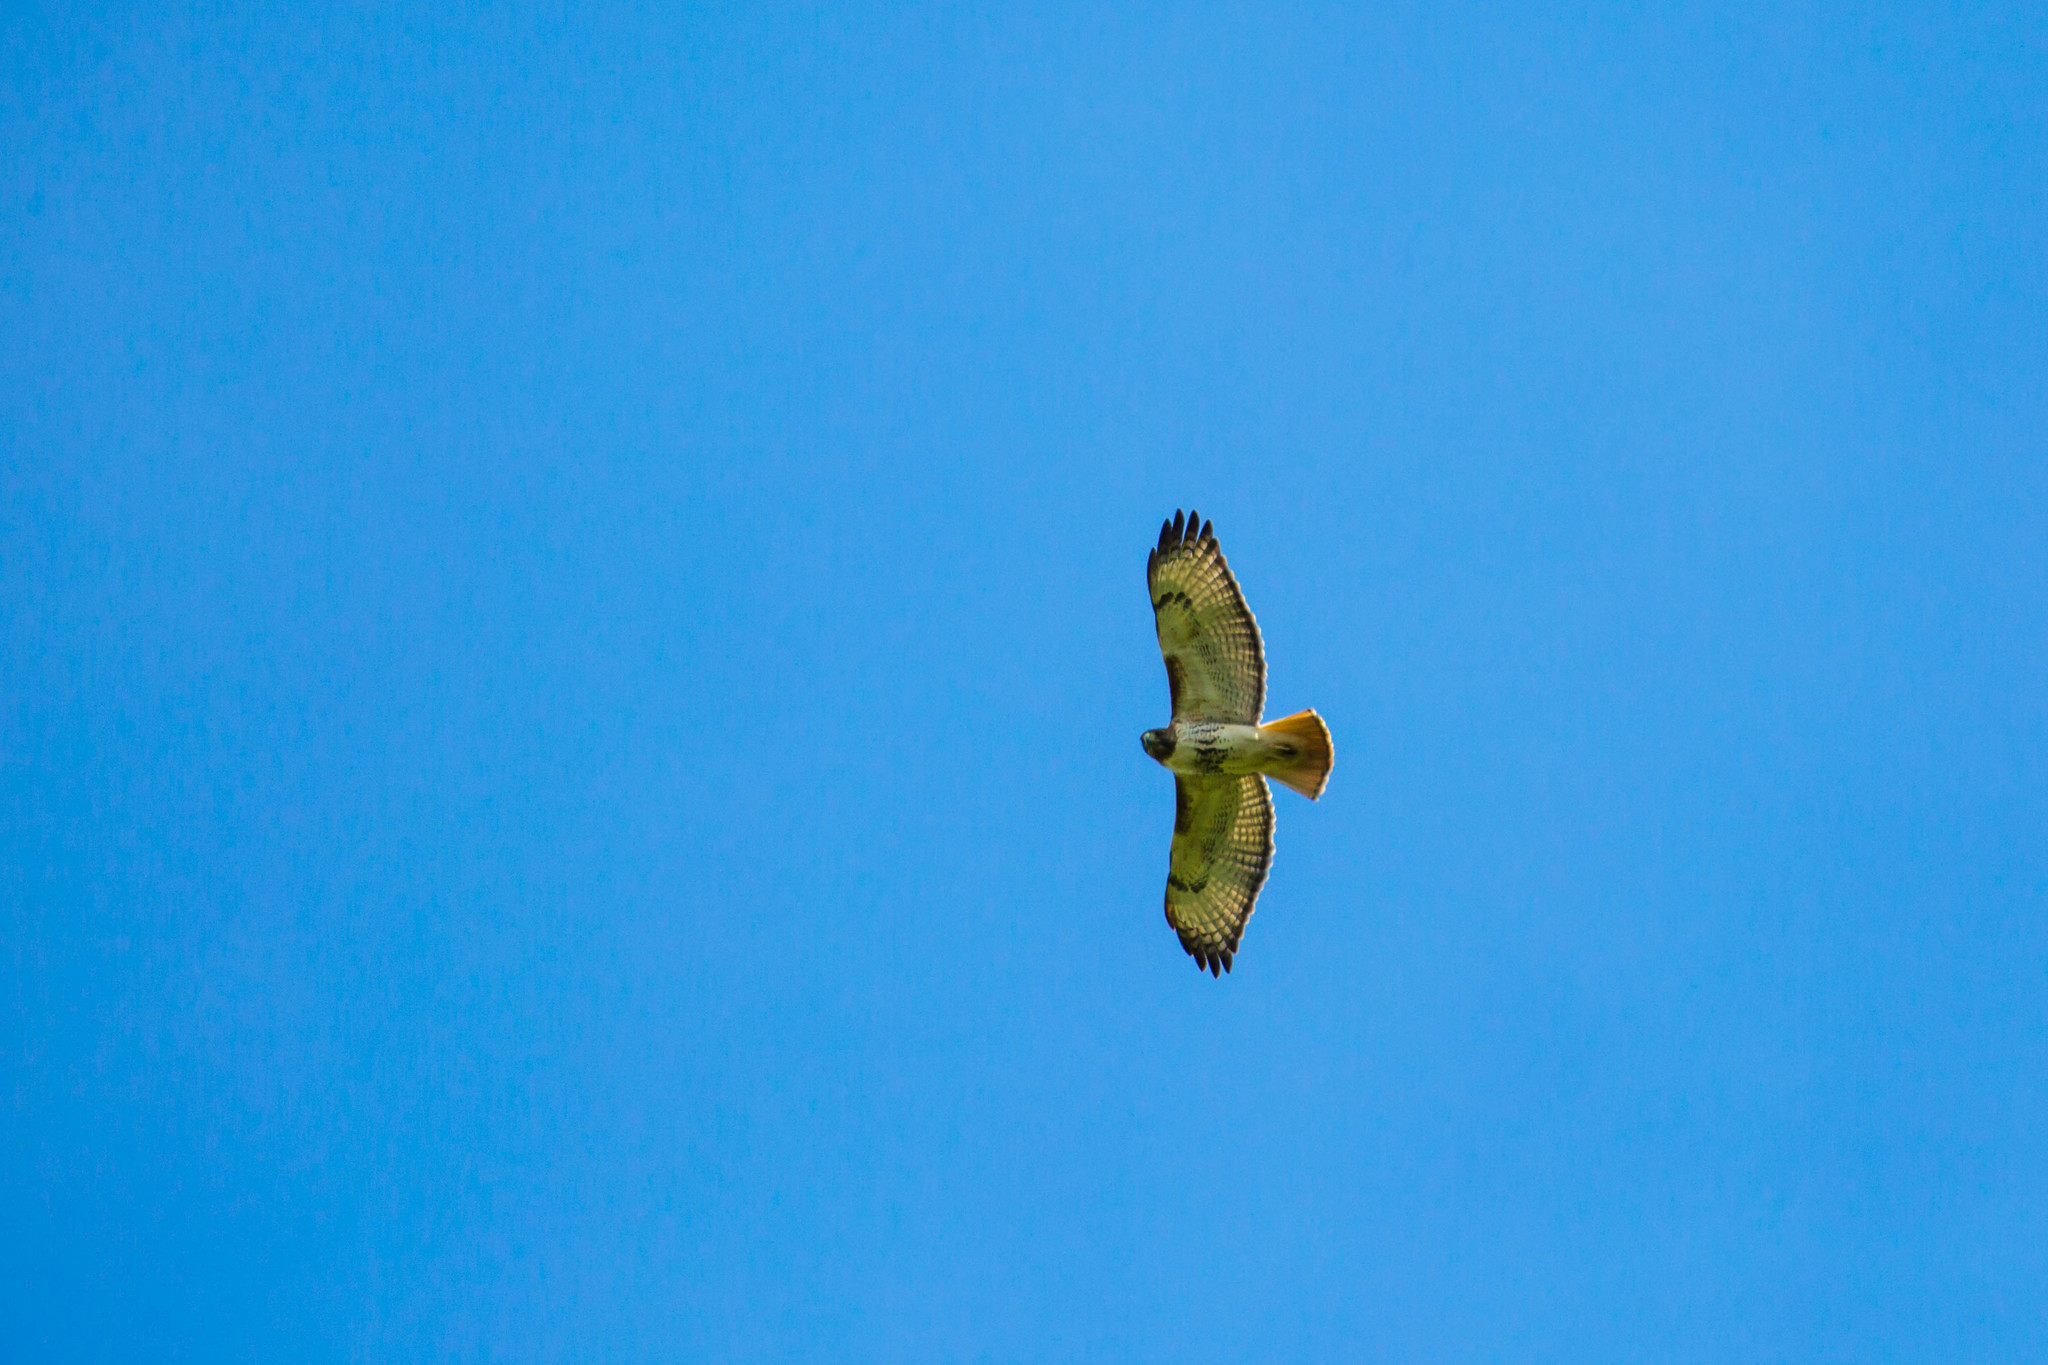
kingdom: Animalia
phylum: Chordata
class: Aves
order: Accipitriformes
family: Accipitridae
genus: Buteo
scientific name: Buteo jamaicensis
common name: Red-tailed hawk
